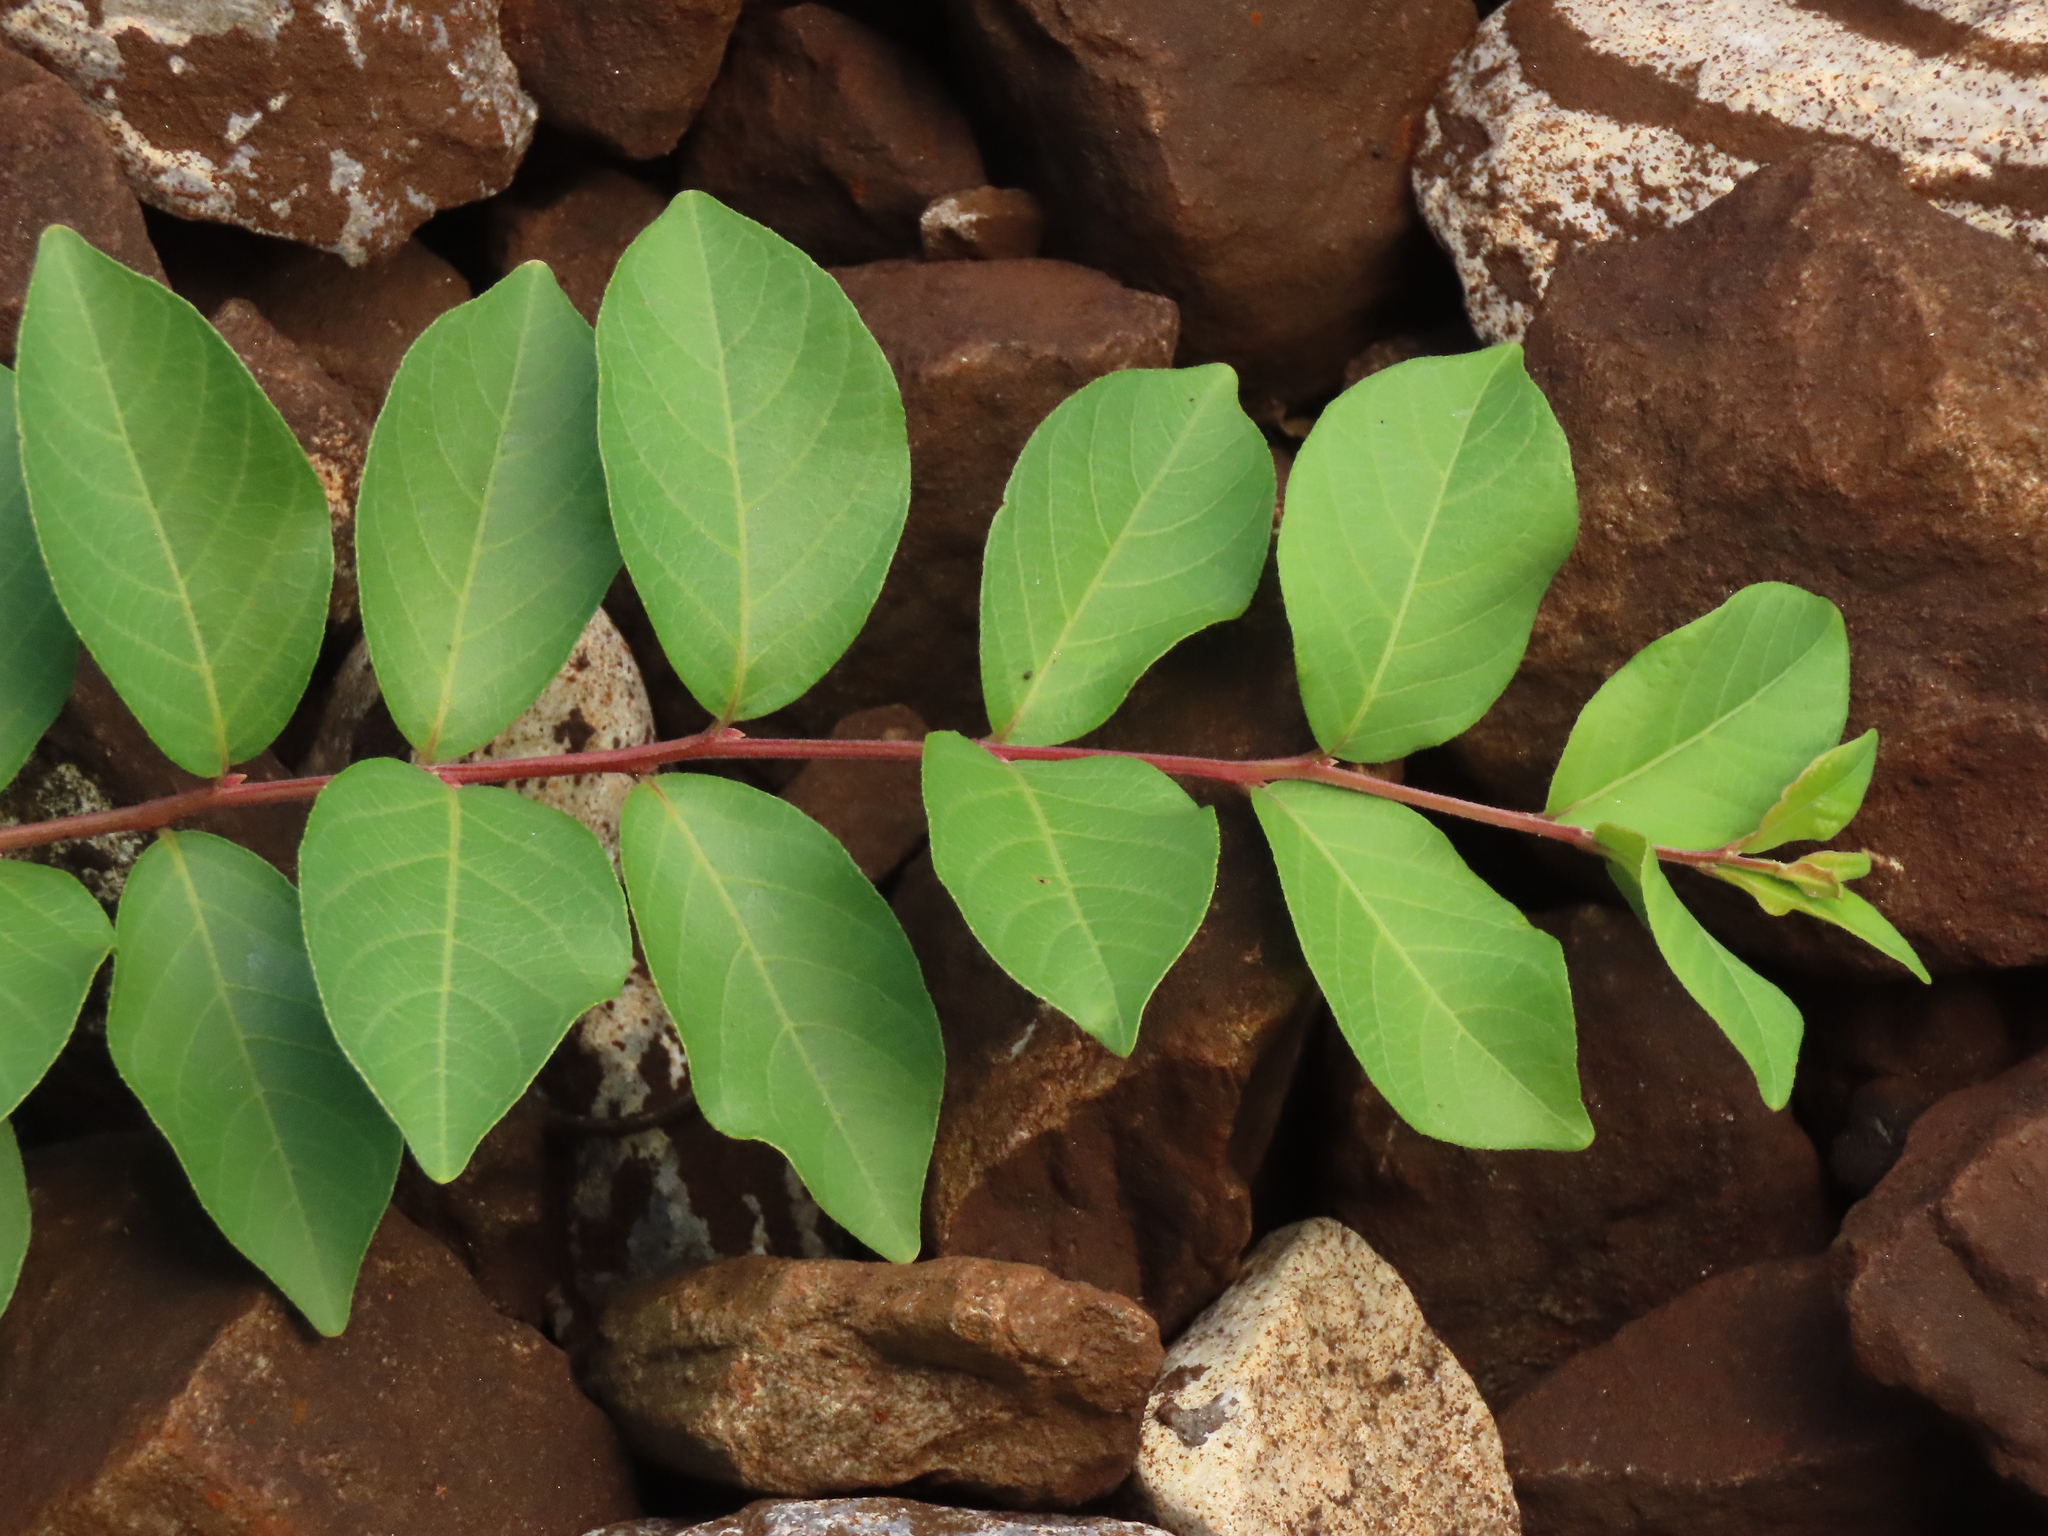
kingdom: Plantae
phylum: Tracheophyta
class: Magnoliopsida
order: Myrtales
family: Lythraceae
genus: Lagerstroemia
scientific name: Lagerstroemia subcostata
